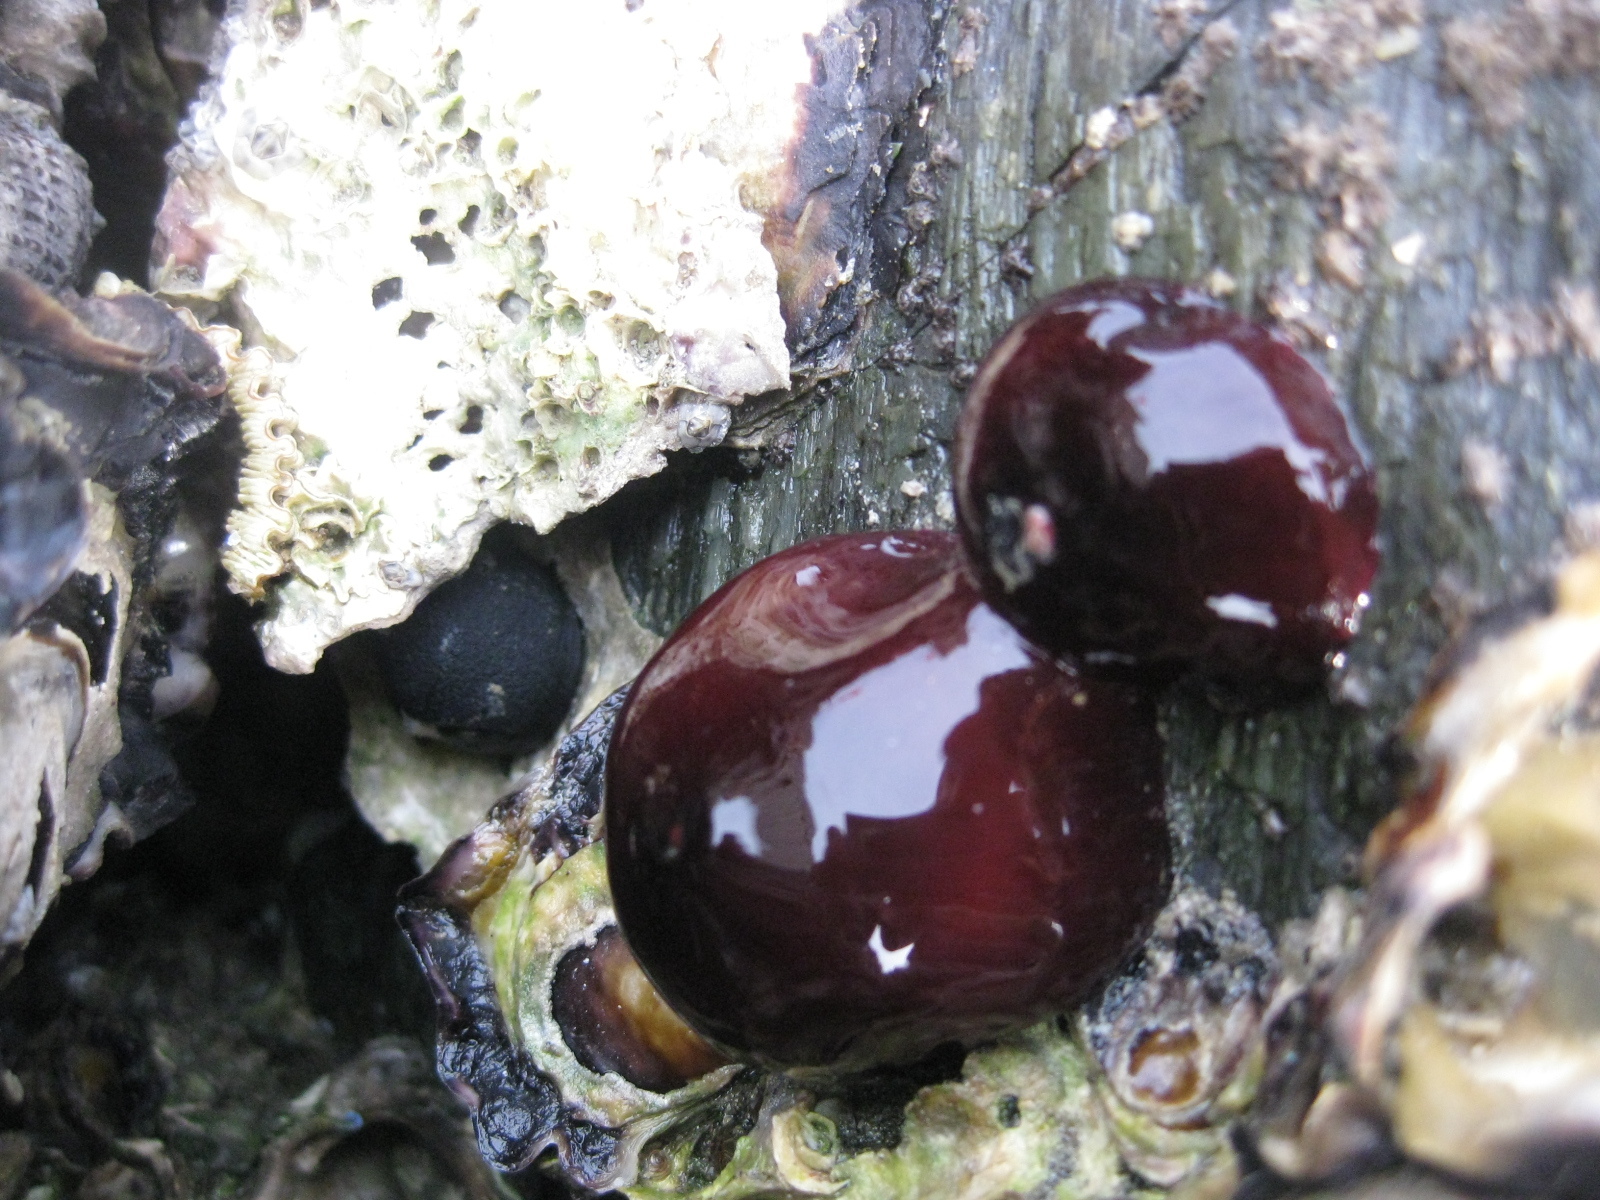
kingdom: Animalia
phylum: Cnidaria
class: Anthozoa
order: Actiniaria
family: Actiniidae
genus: Actinia
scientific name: Actinia tenebrosa
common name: Waratah anemone
